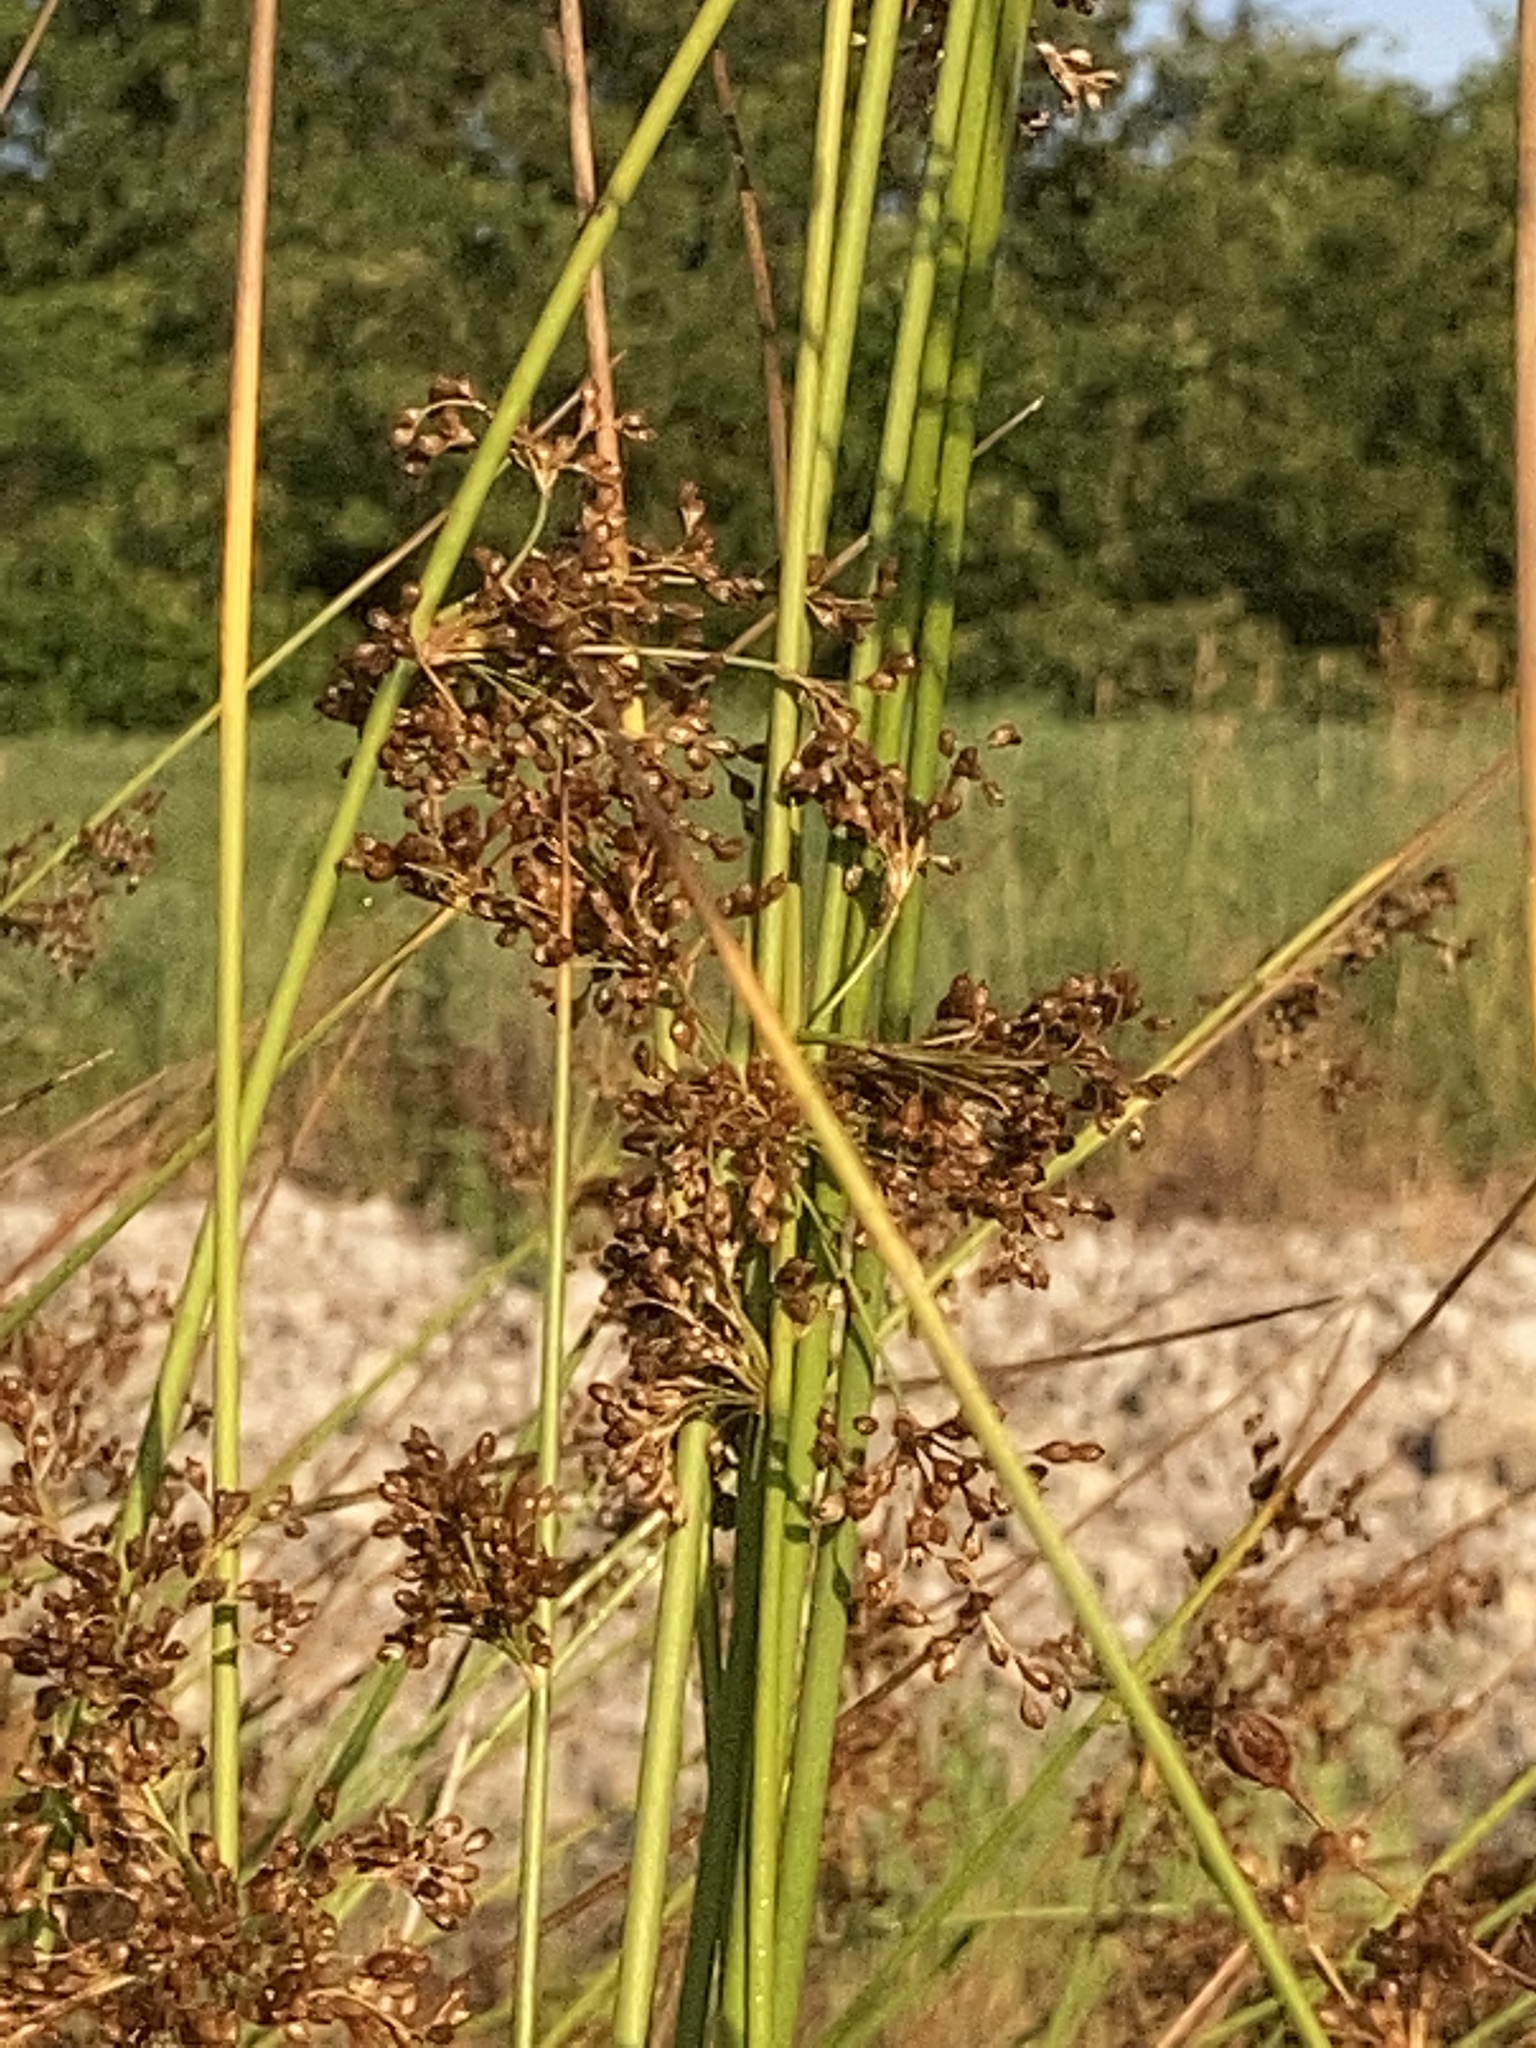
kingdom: Plantae
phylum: Tracheophyta
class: Liliopsida
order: Poales
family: Juncaceae
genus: Juncus
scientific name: Juncus effusus
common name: Soft rush
